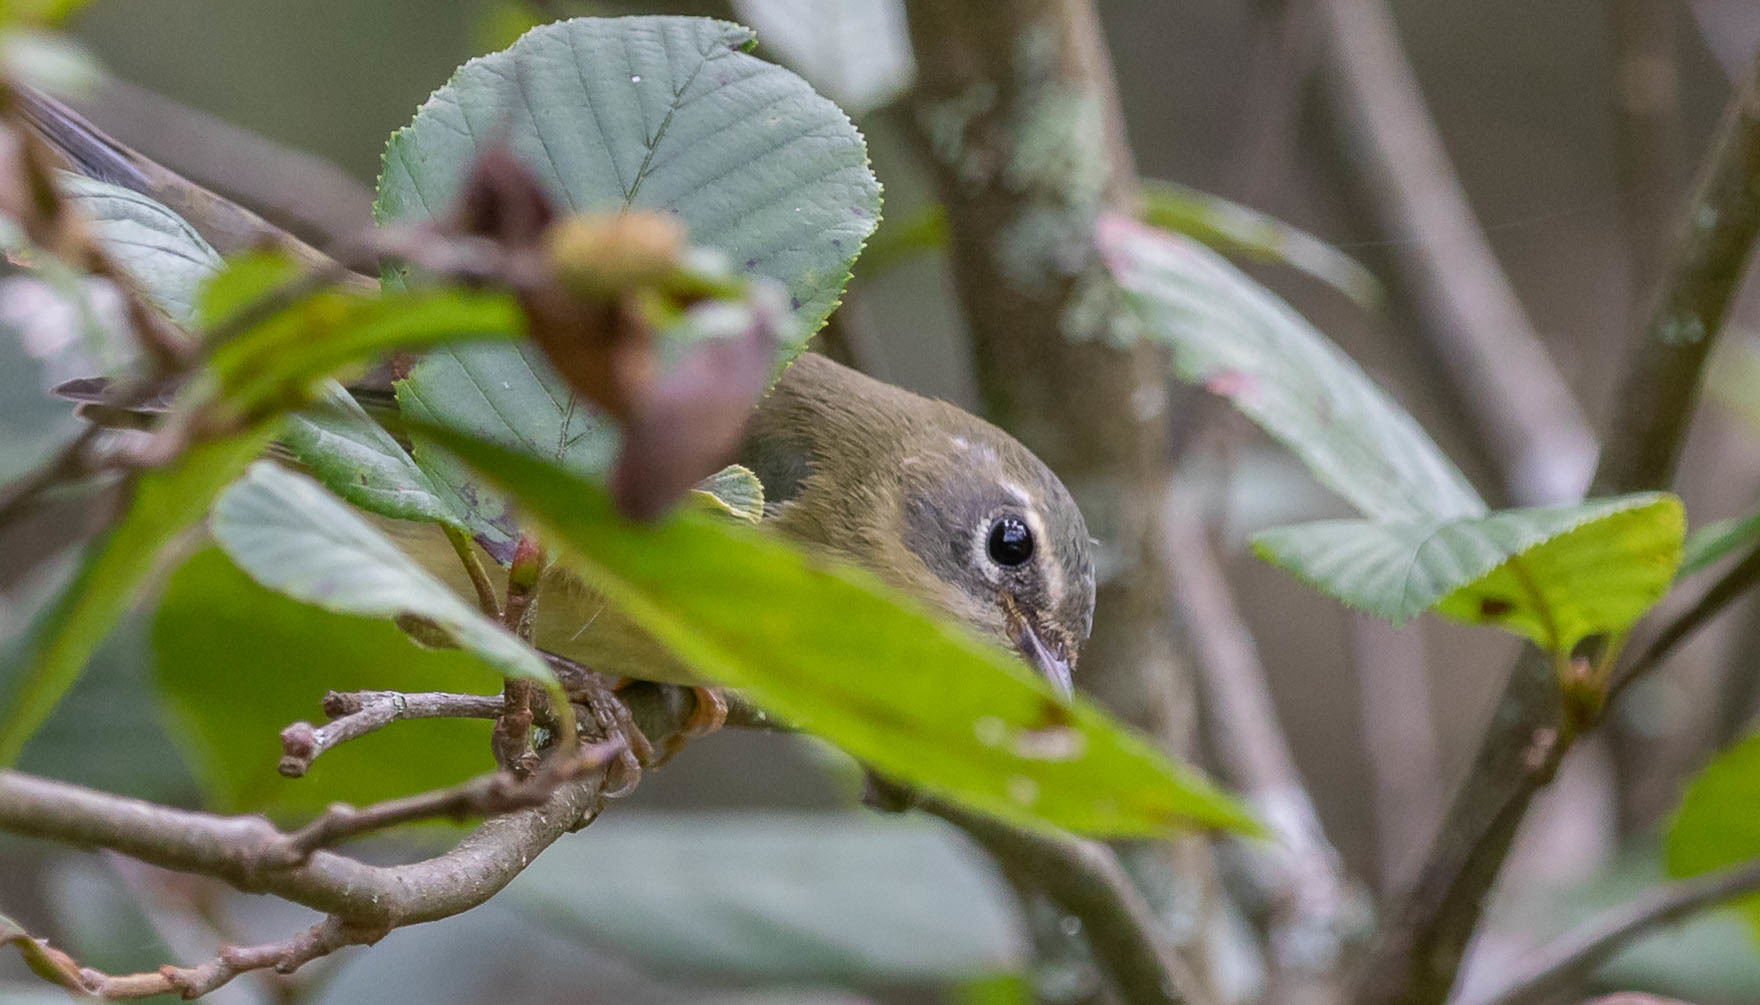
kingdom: Animalia
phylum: Chordata
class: Aves
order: Passeriformes
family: Parulidae
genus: Setophaga
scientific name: Setophaga caerulescens
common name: Black-throated blue warbler
